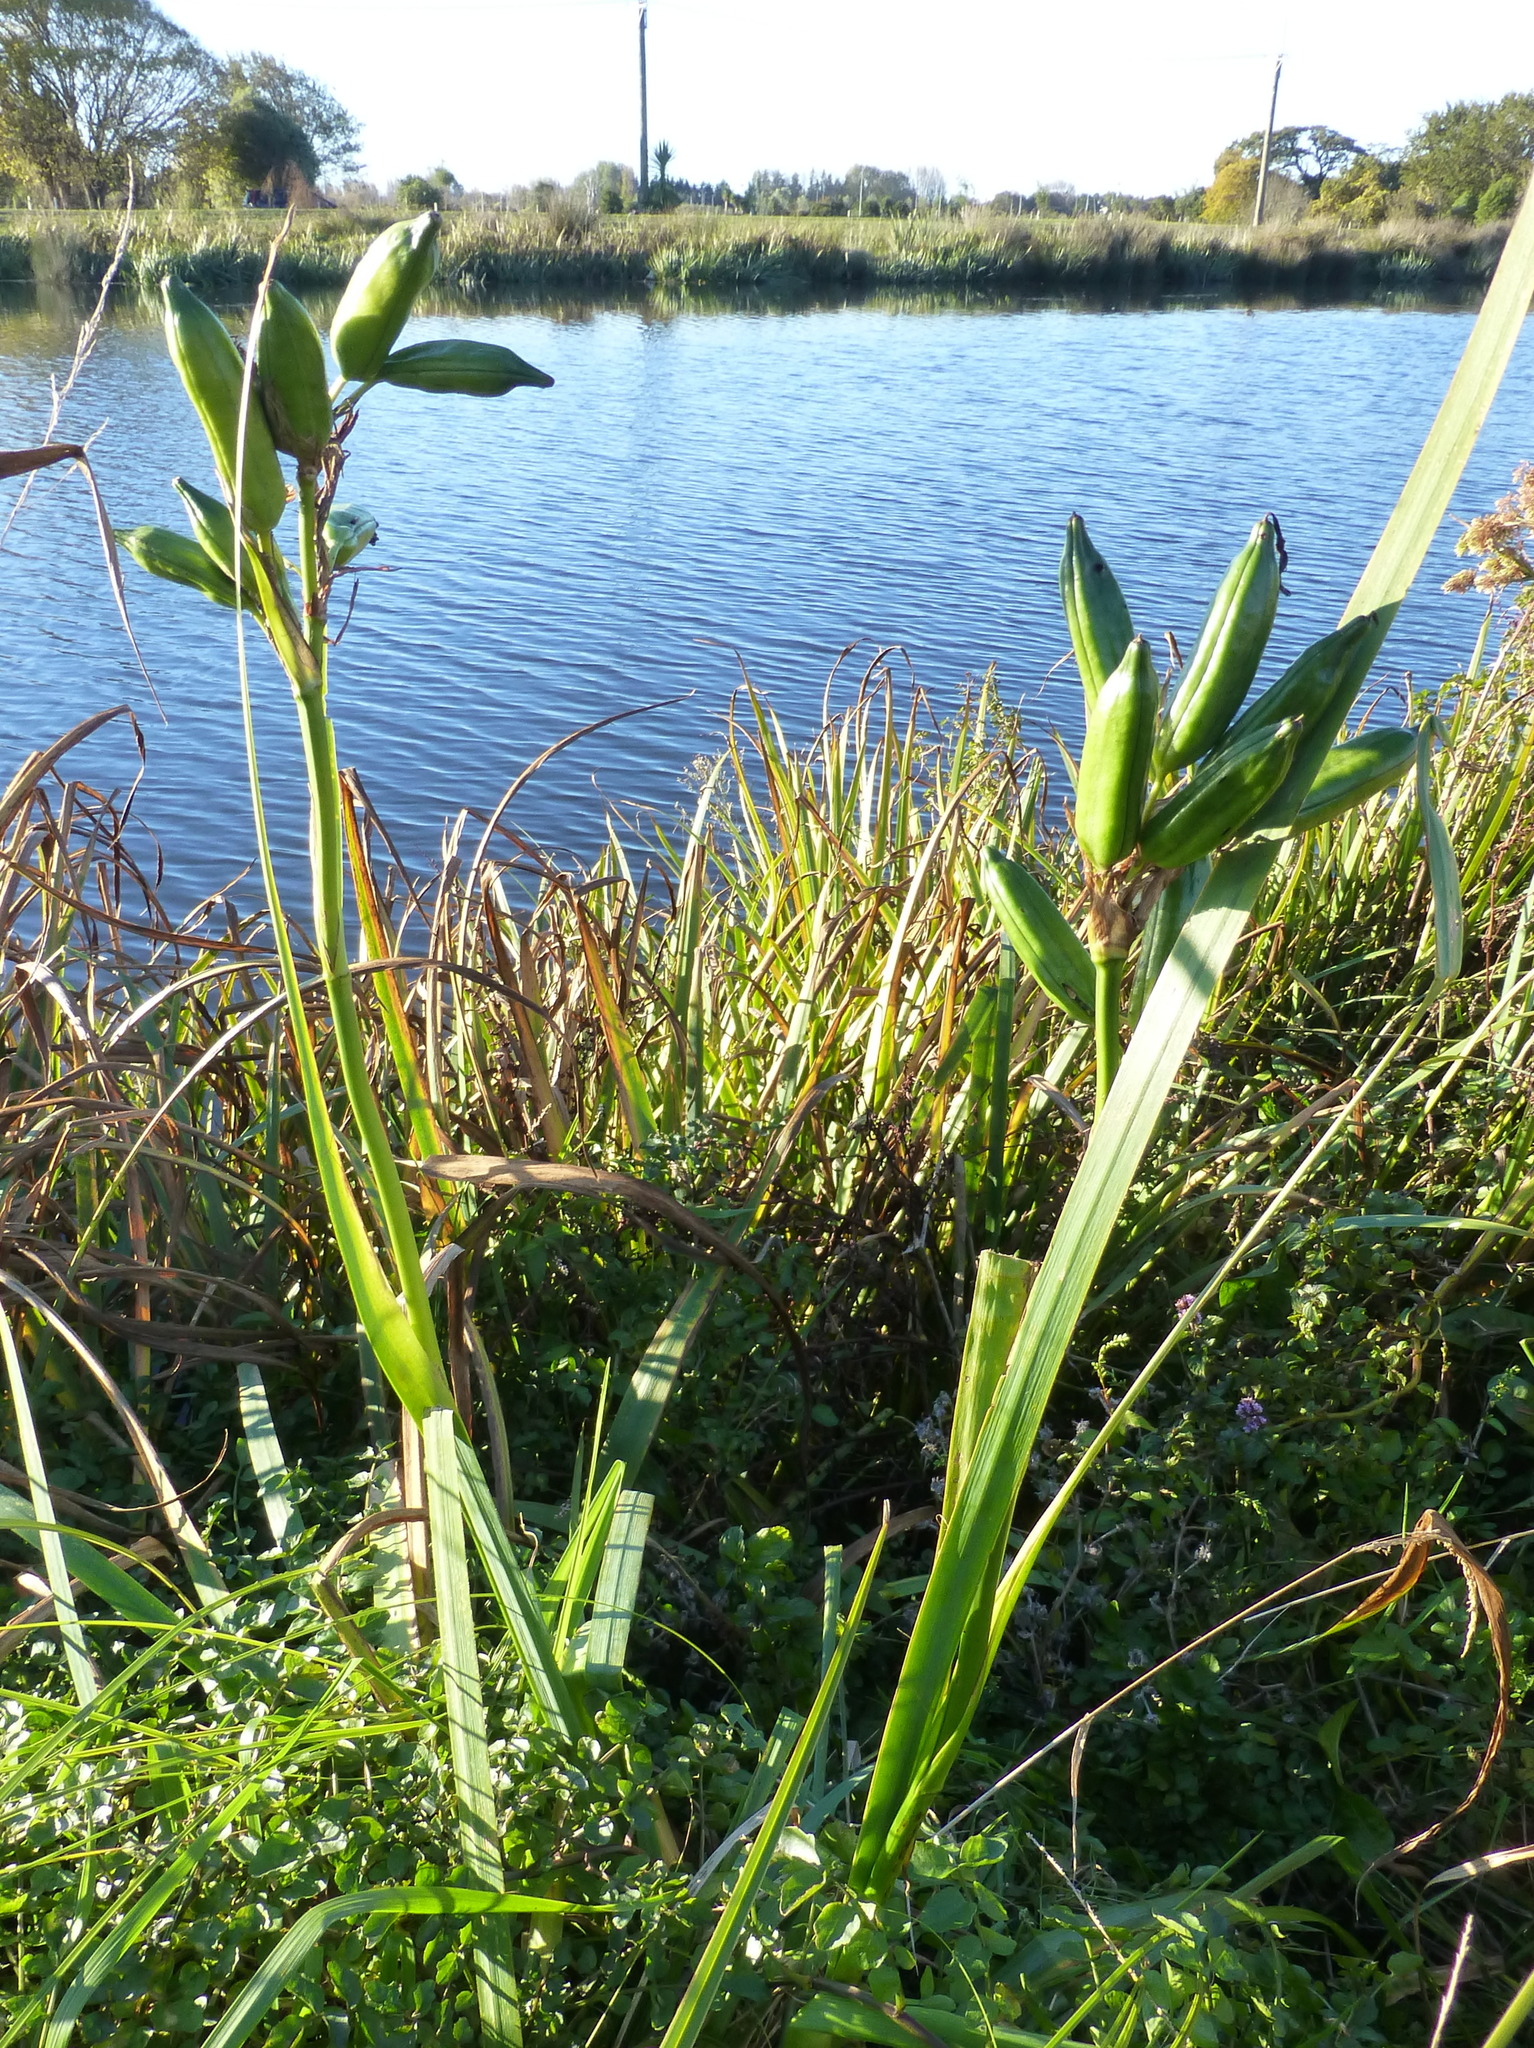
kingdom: Plantae
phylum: Tracheophyta
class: Liliopsida
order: Asparagales
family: Iridaceae
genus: Iris
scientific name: Iris pseudacorus
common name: Yellow flag
